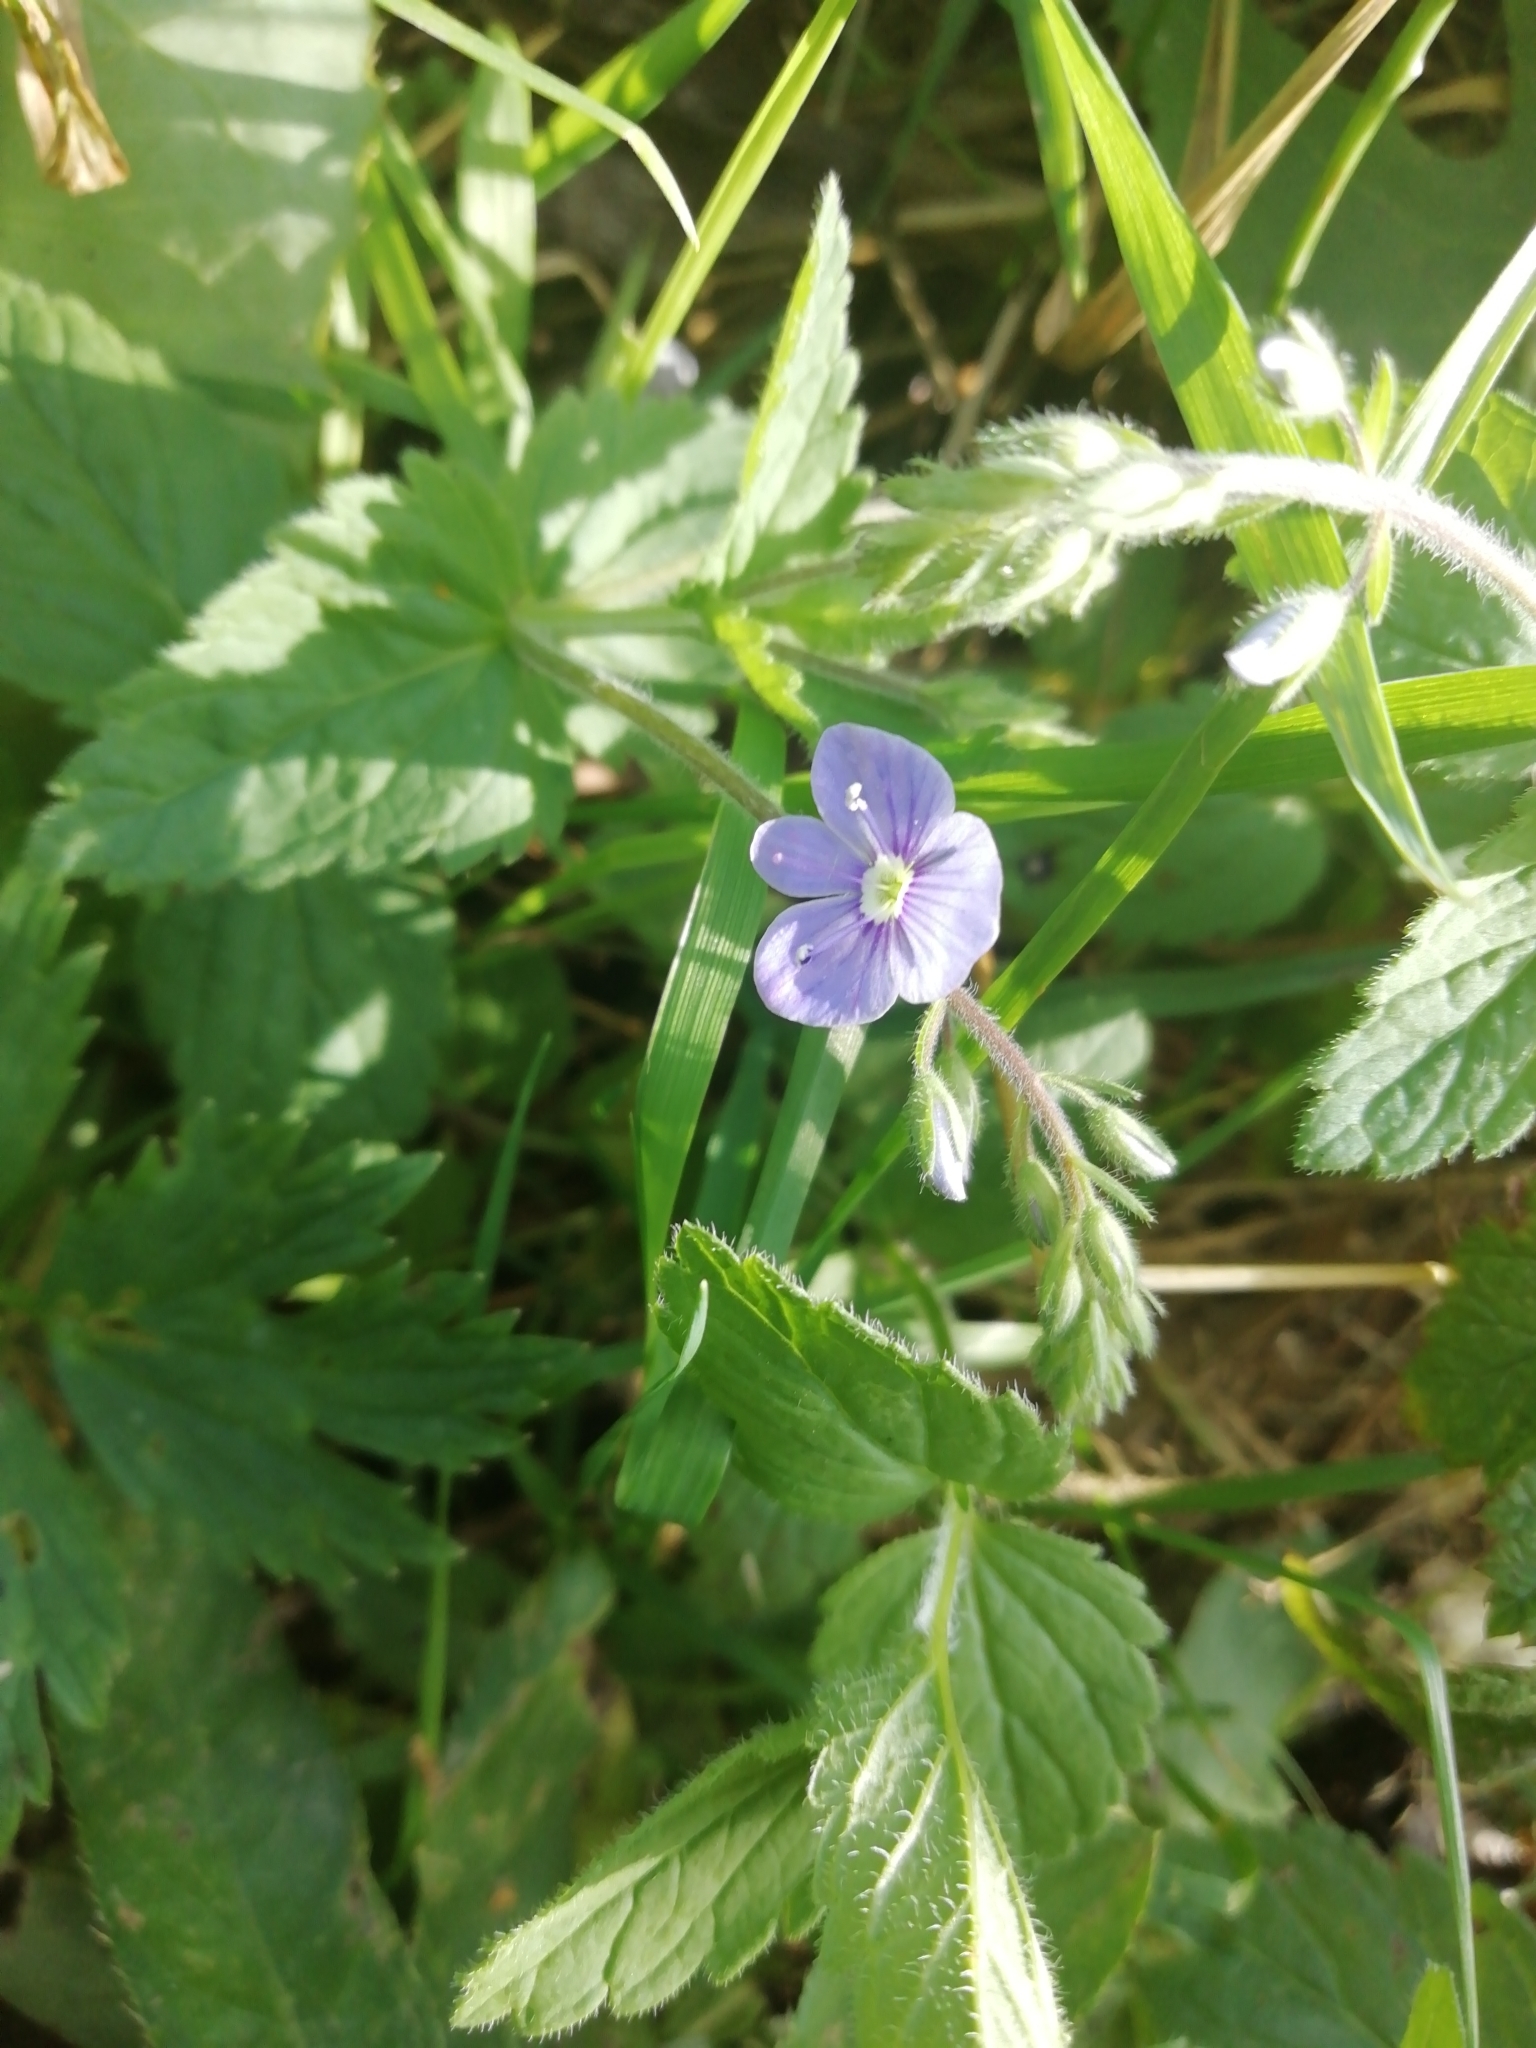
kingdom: Plantae
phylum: Tracheophyta
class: Magnoliopsida
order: Lamiales
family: Plantaginaceae
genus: Veronica
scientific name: Veronica chamaedrys
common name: Germander speedwell
